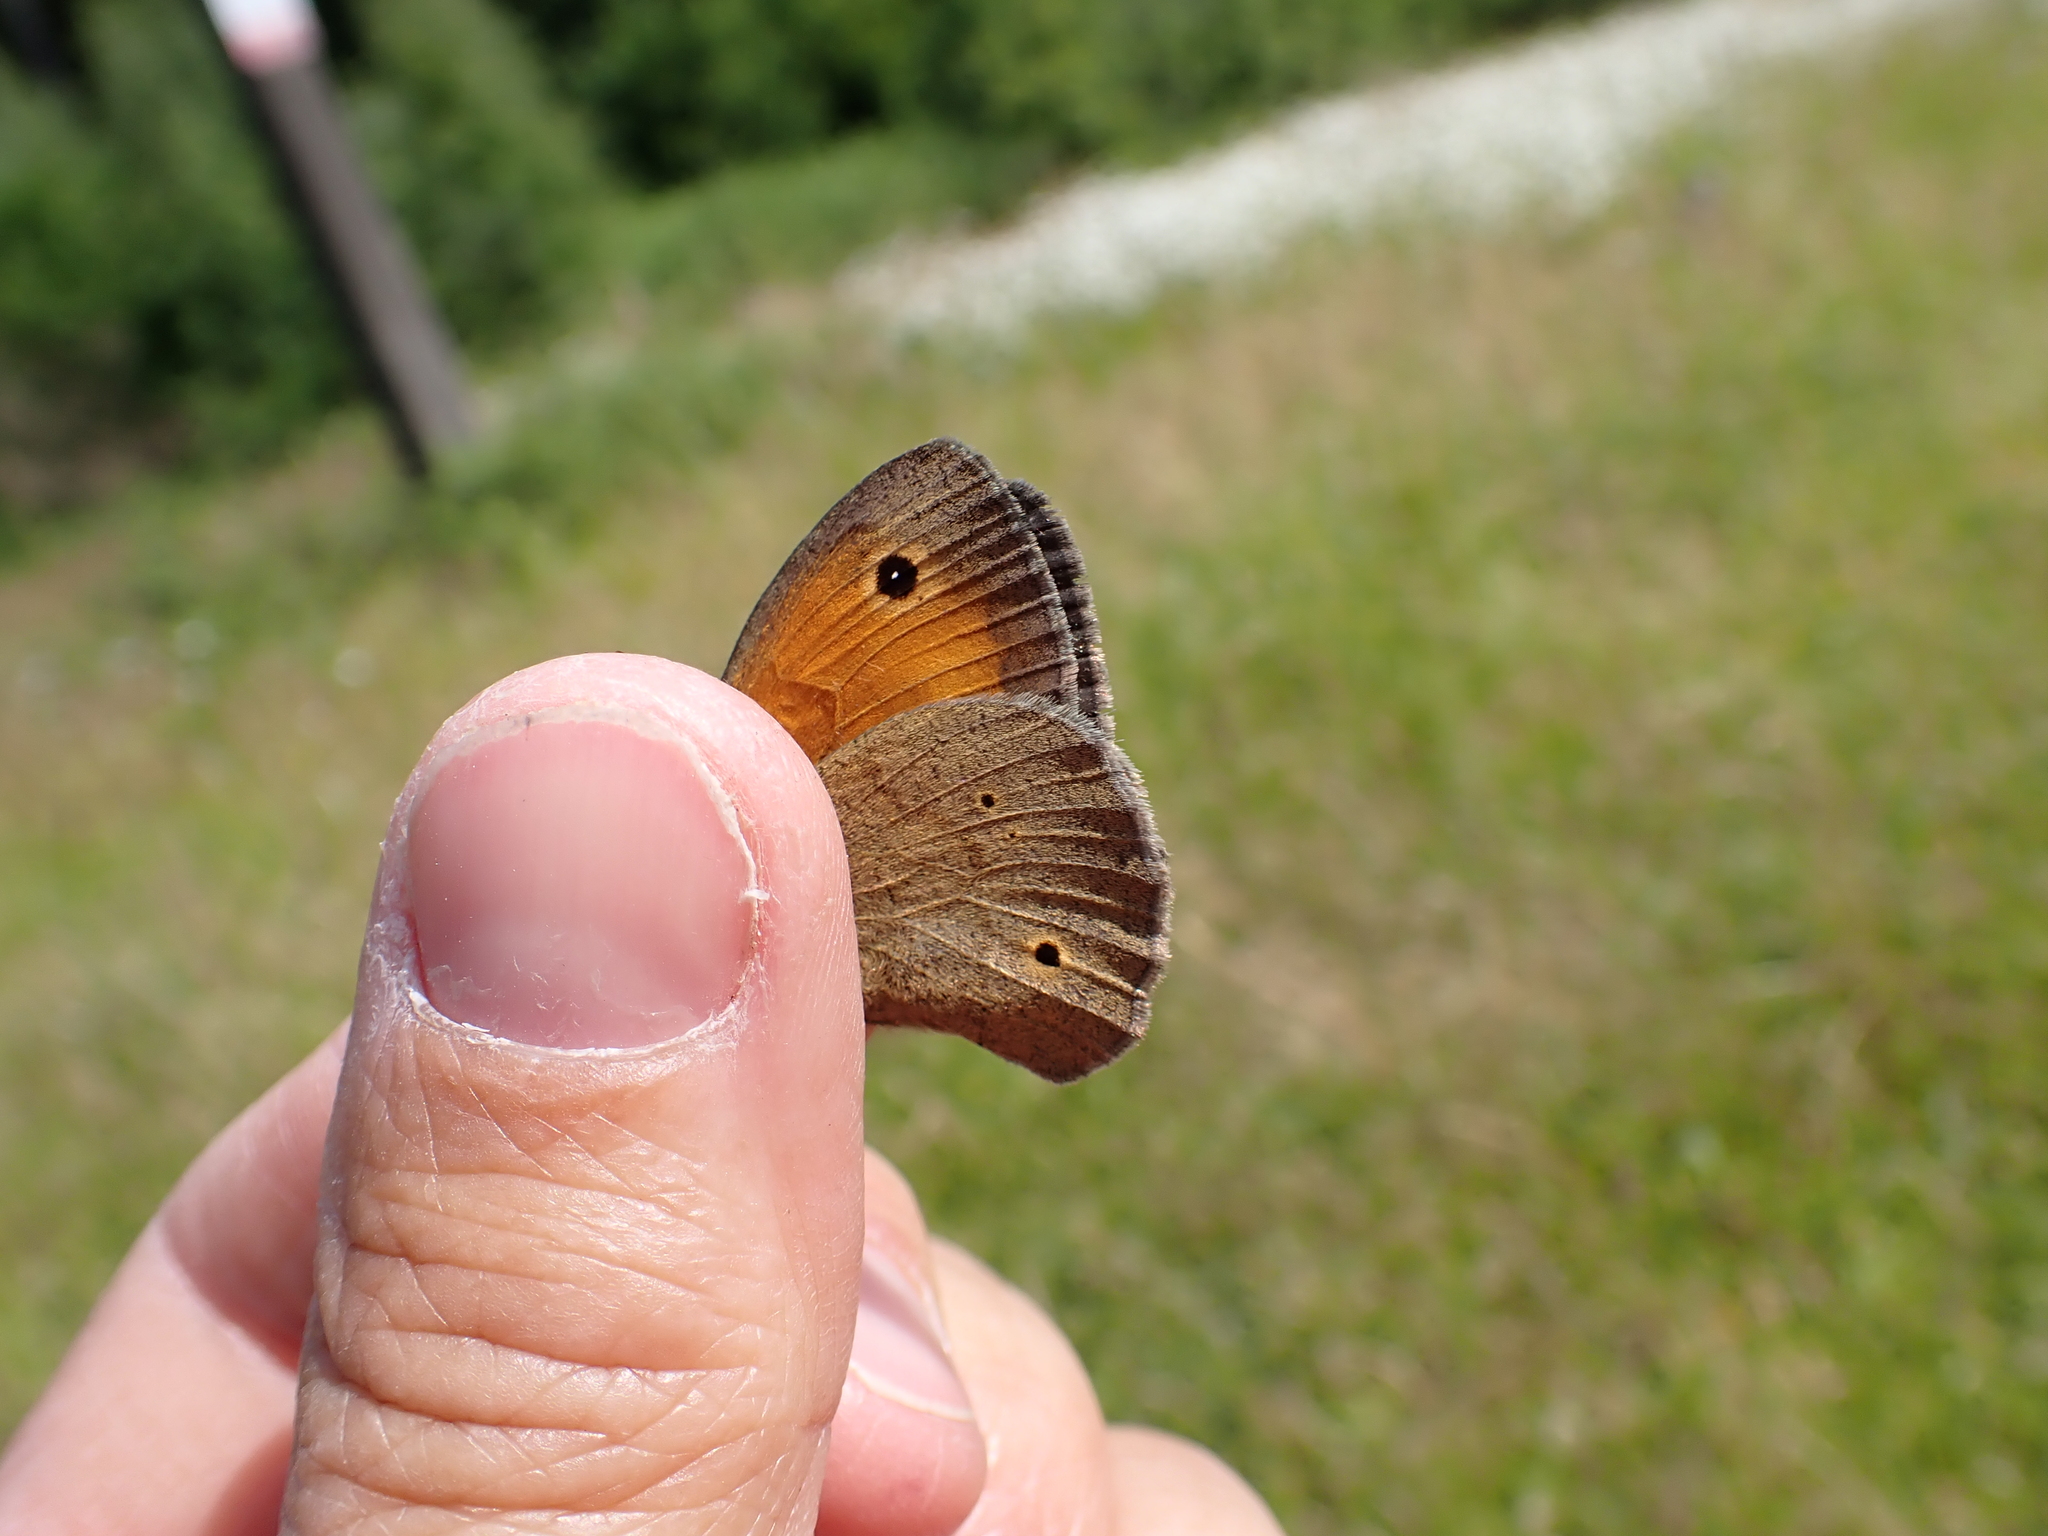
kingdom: Animalia
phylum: Arthropoda
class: Insecta
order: Lepidoptera
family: Nymphalidae
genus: Maniola
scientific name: Maniola jurtina
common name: Meadow brown
